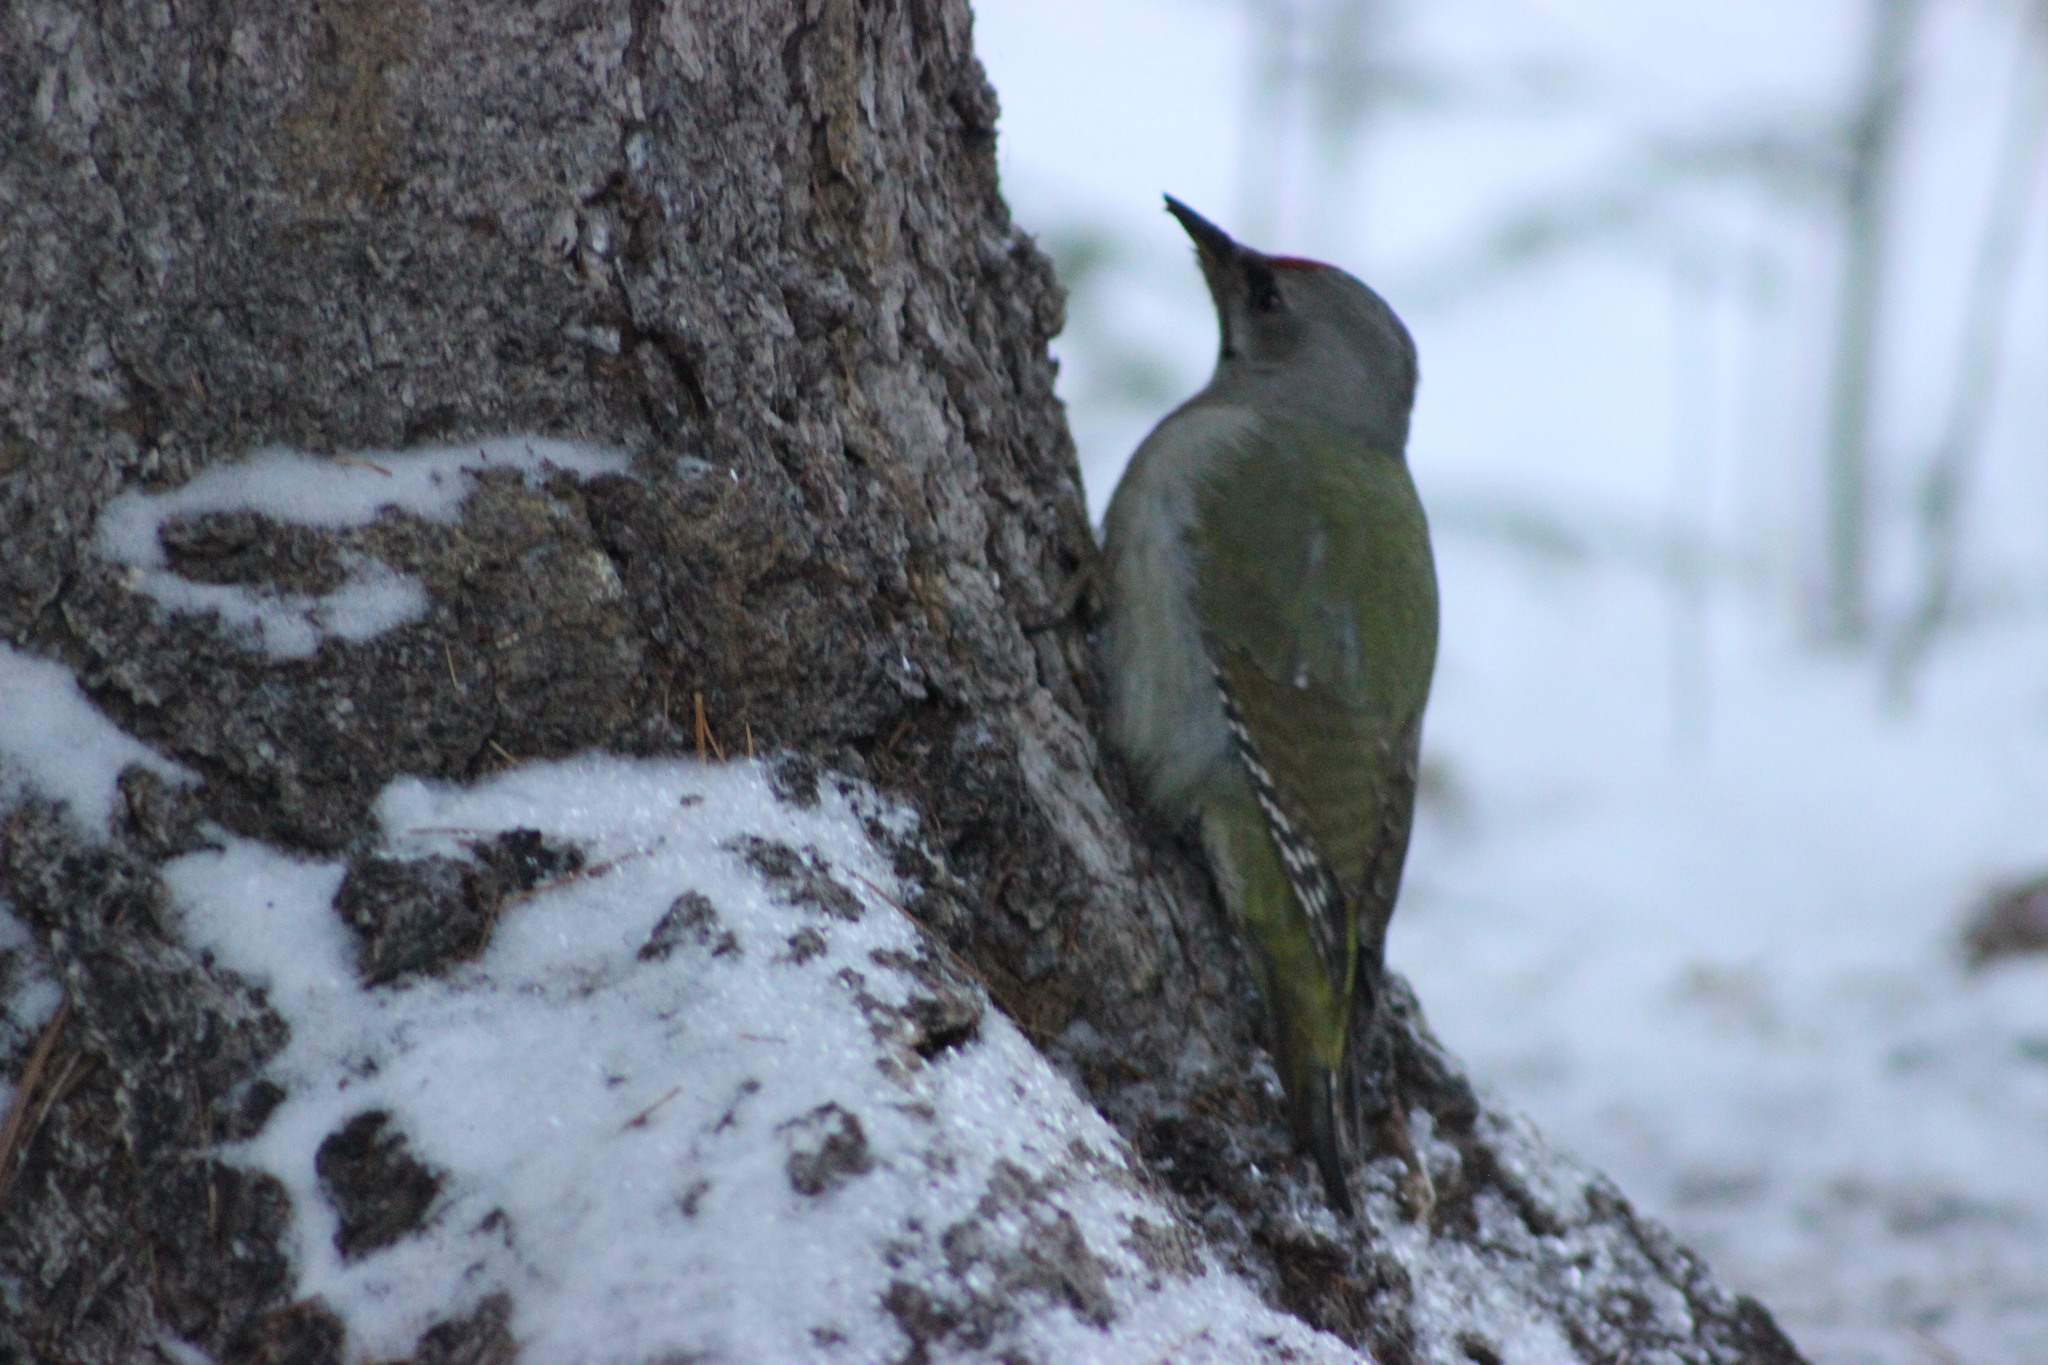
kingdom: Animalia
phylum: Chordata
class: Aves
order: Piciformes
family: Picidae
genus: Picus
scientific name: Picus canus
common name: Grey-headed woodpecker
